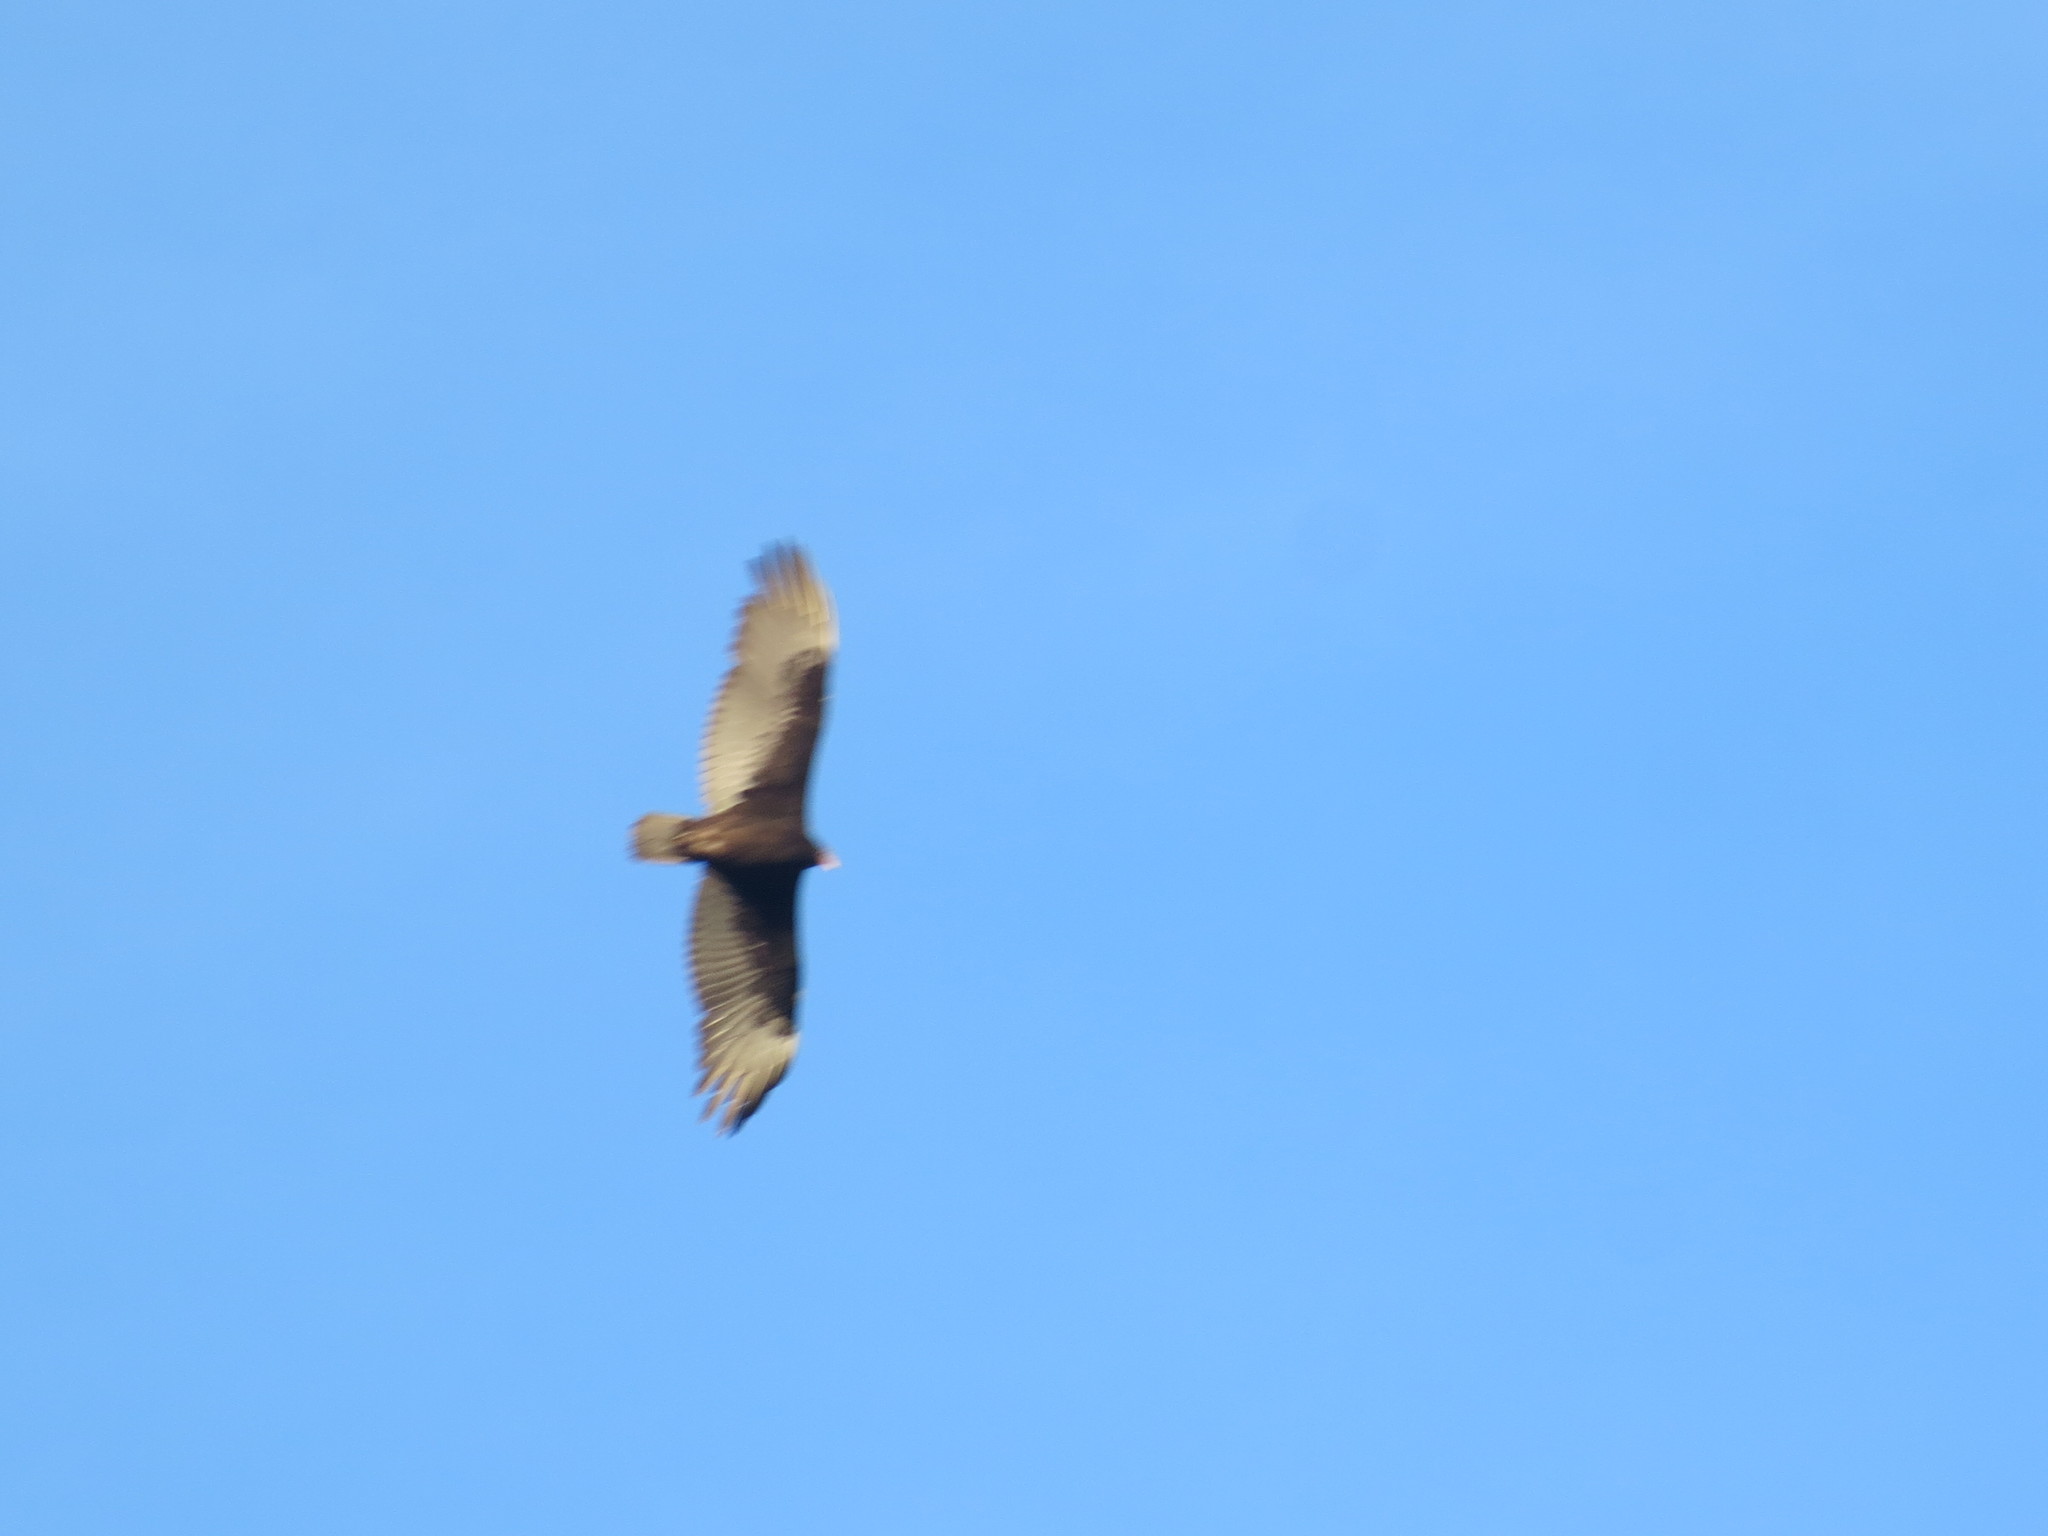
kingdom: Animalia
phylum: Chordata
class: Aves
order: Accipitriformes
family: Cathartidae
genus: Cathartes
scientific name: Cathartes aura
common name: Turkey vulture
